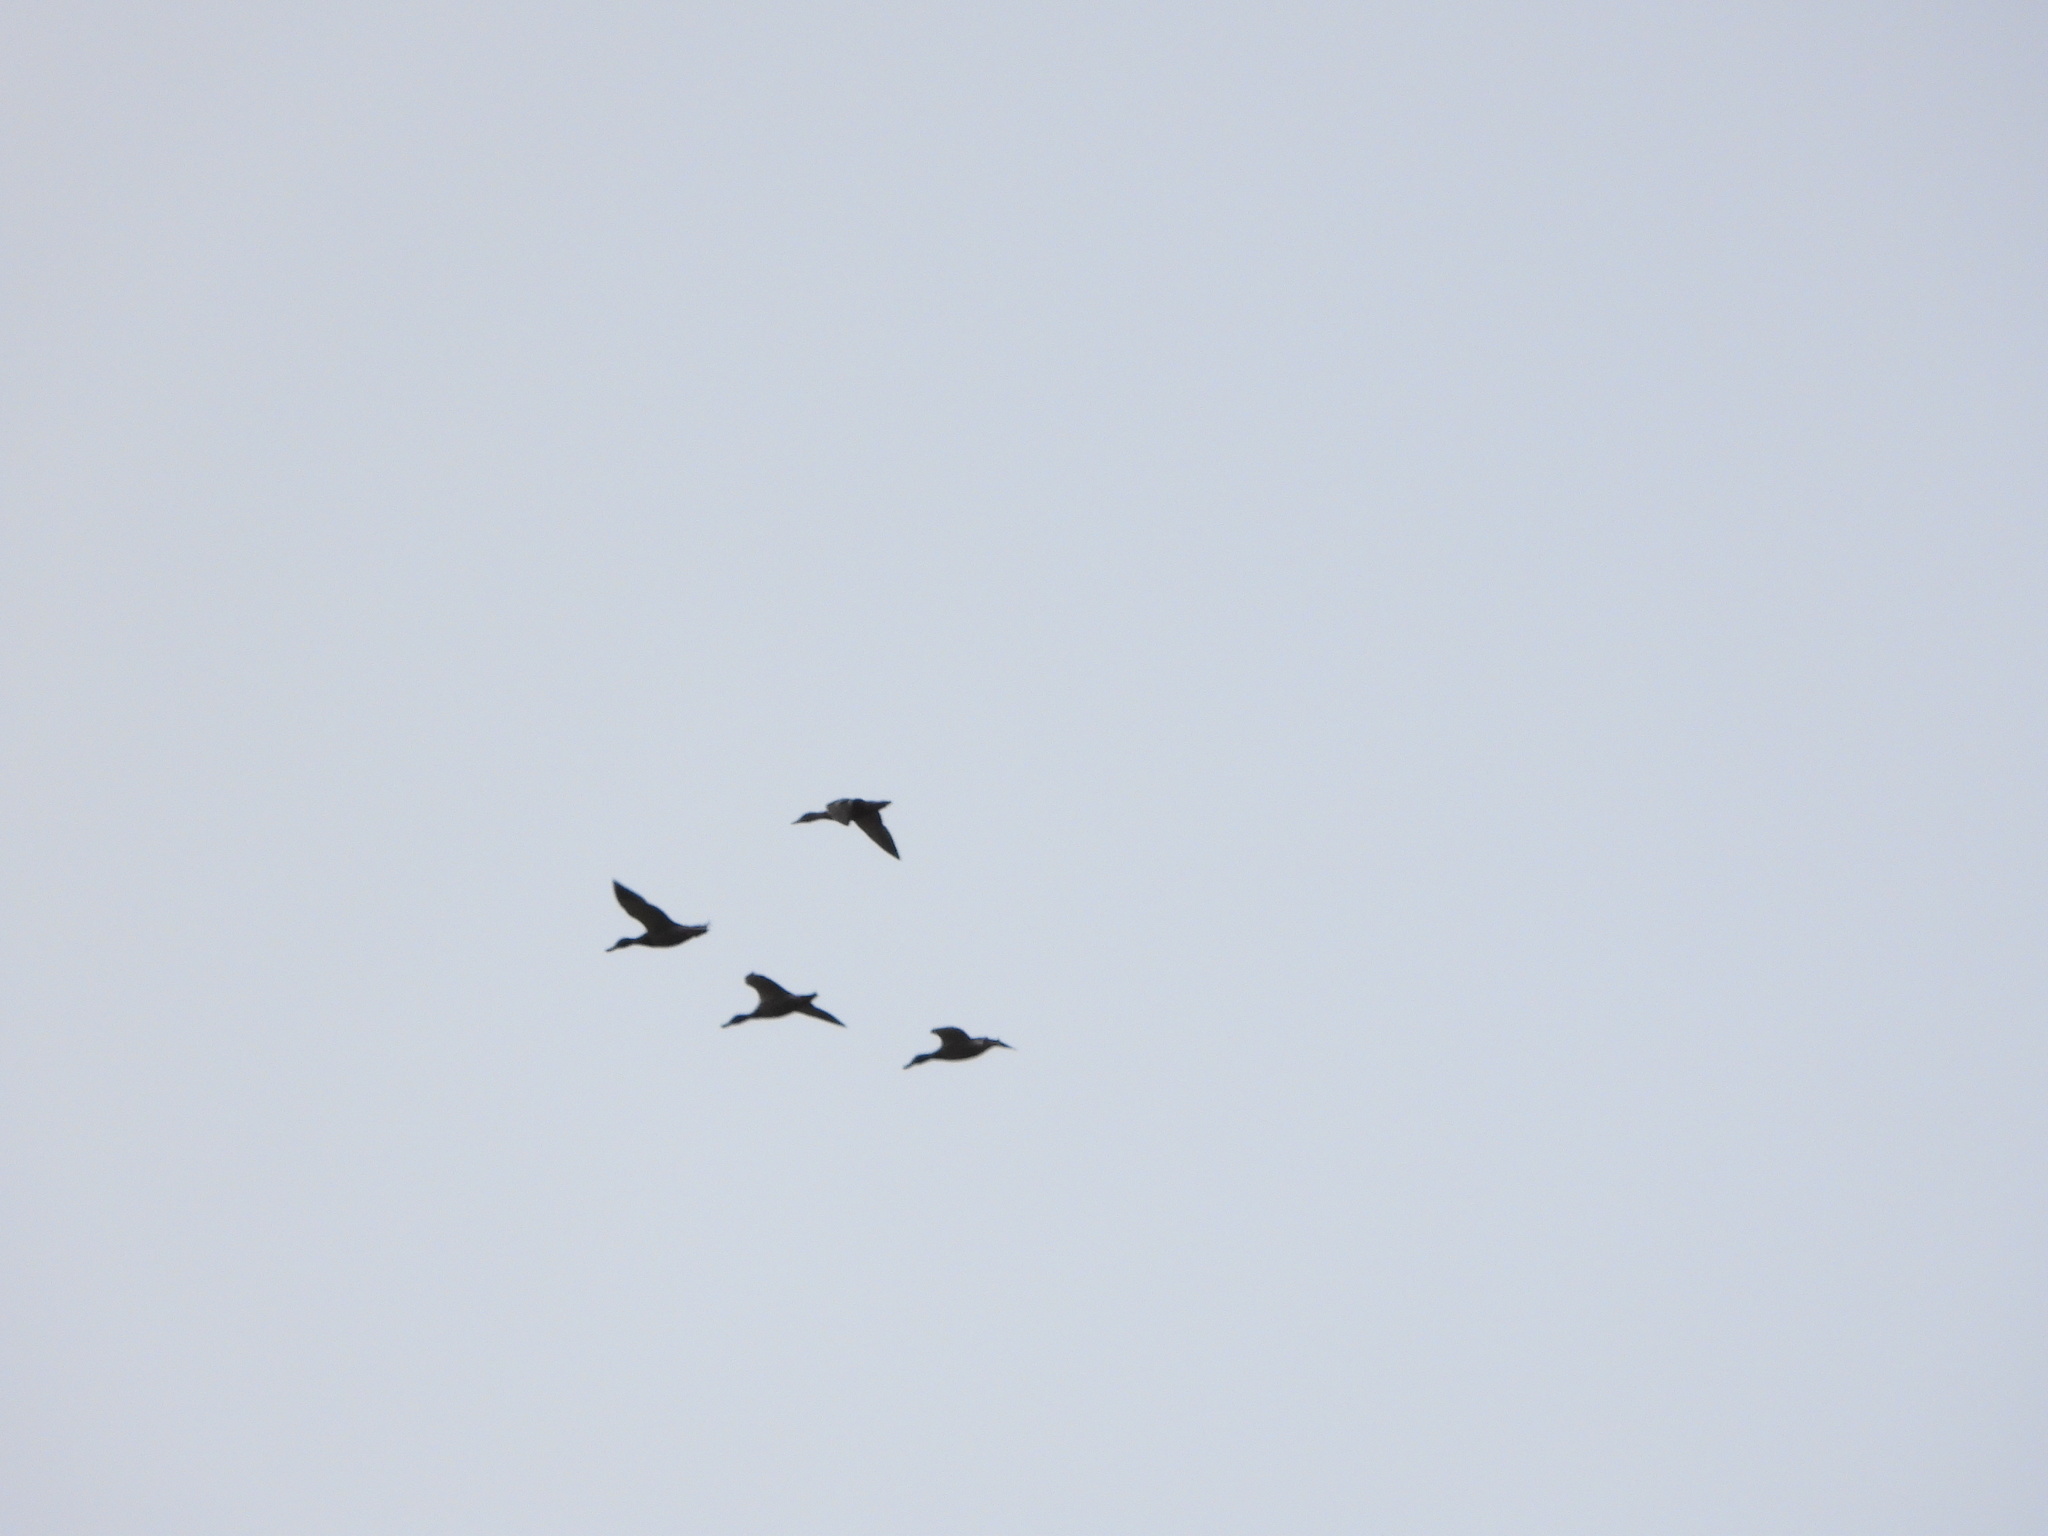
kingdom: Animalia
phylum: Chordata
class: Aves
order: Anseriformes
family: Anatidae
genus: Anas
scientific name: Anas platyrhynchos
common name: Mallard
